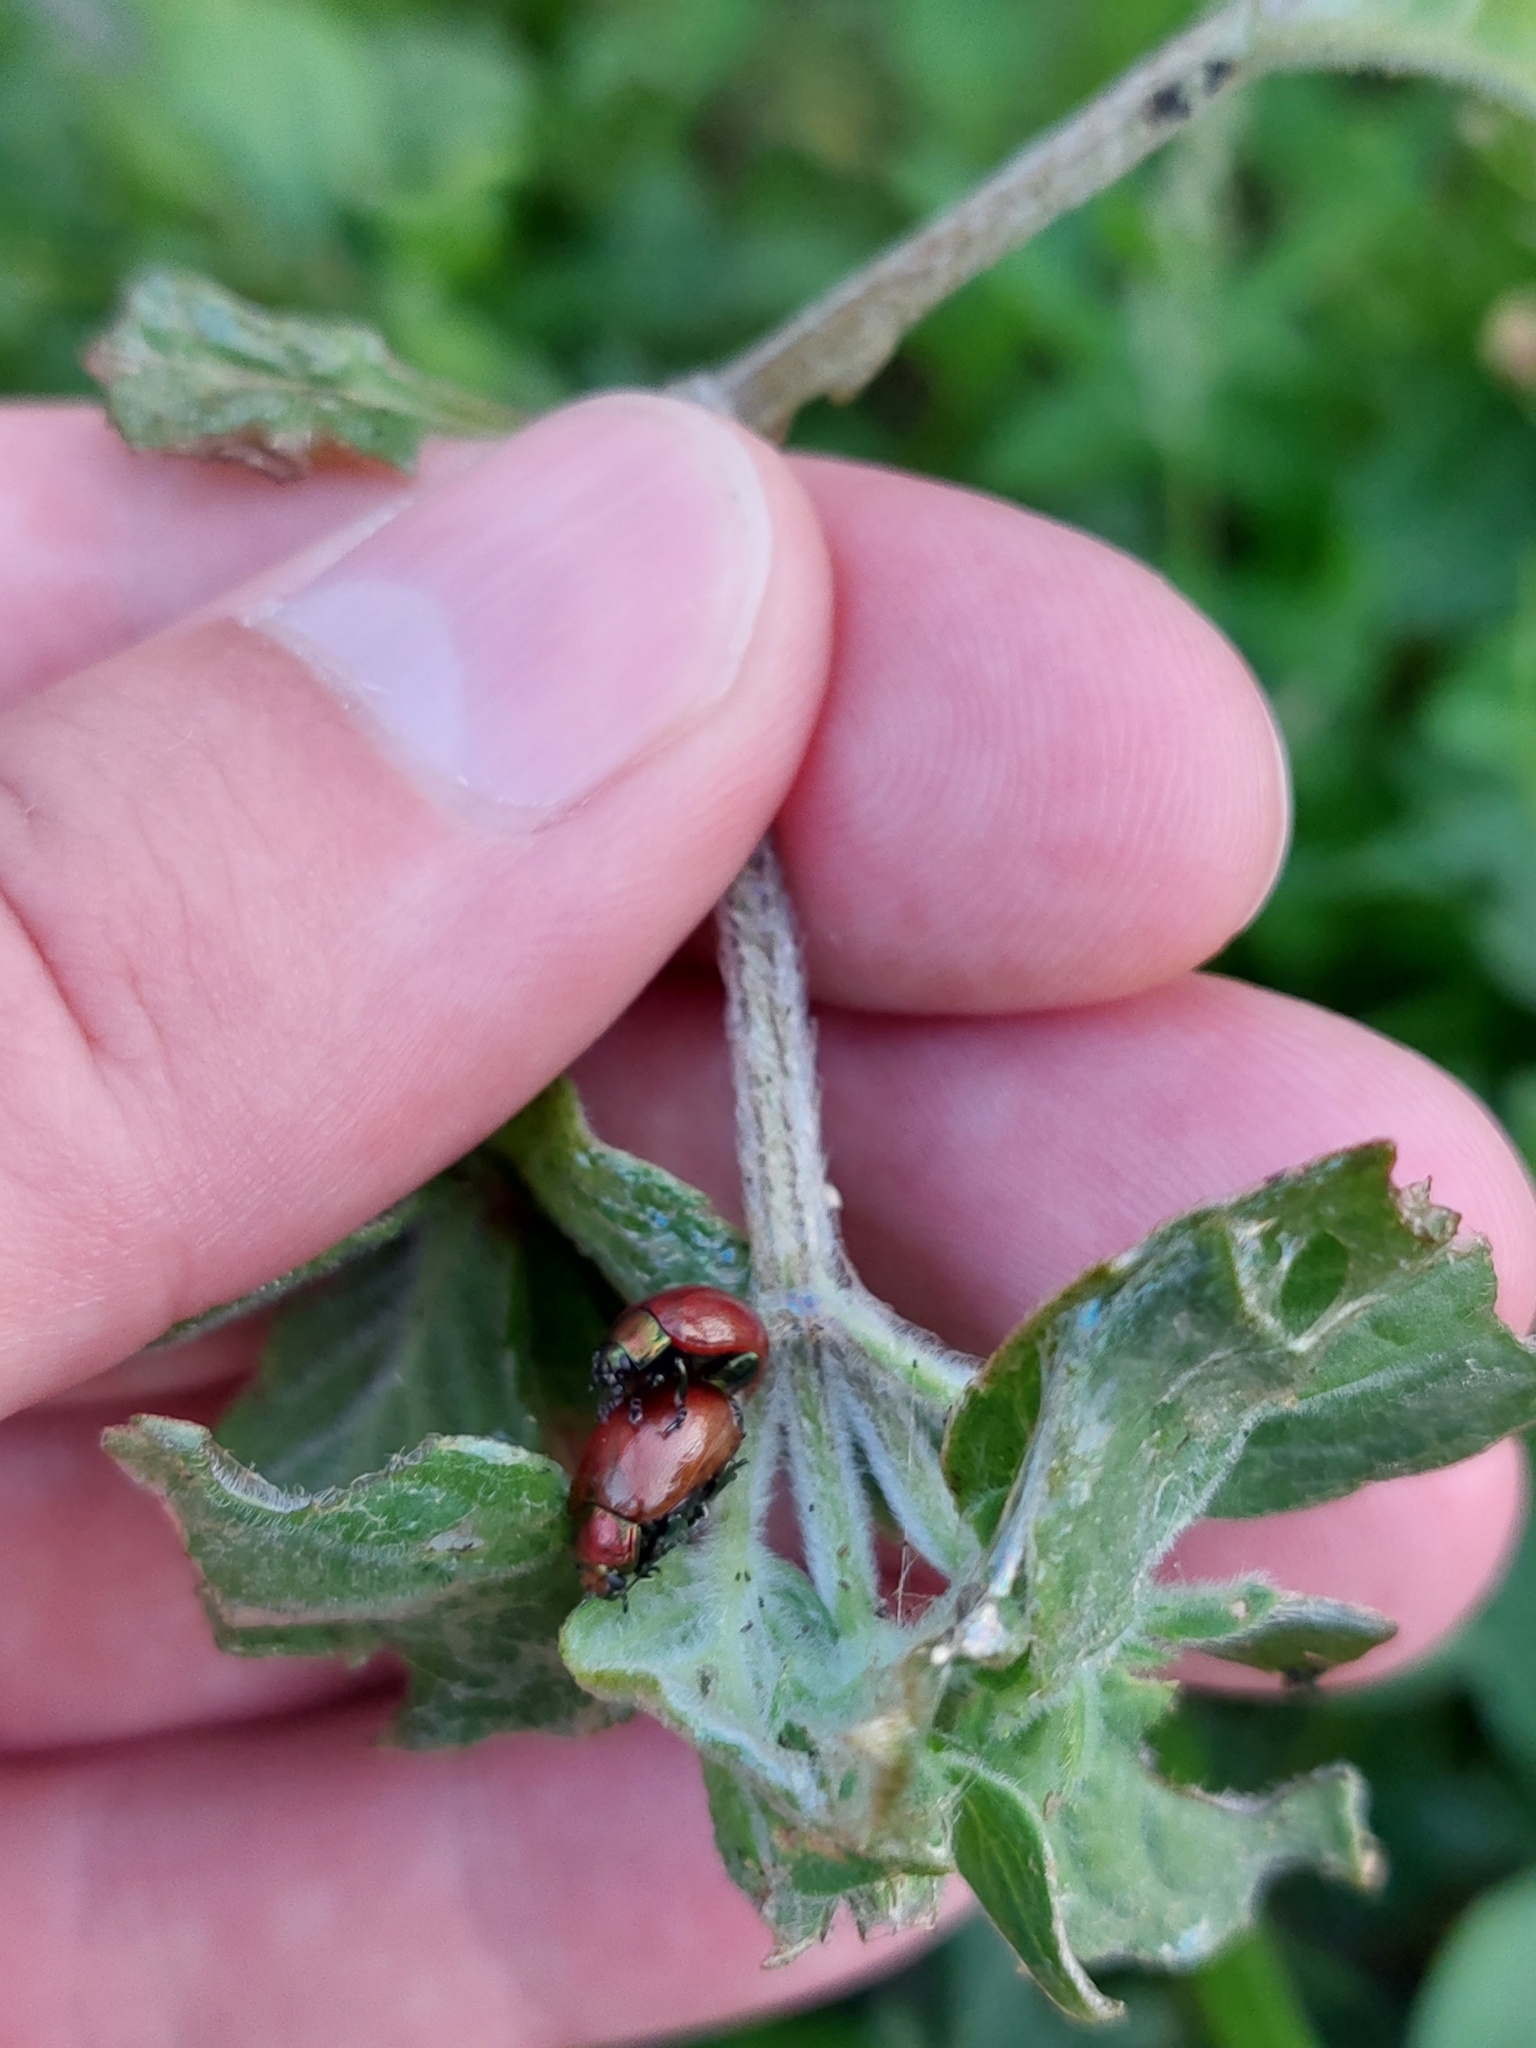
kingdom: Animalia
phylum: Arthropoda
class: Insecta
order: Coleoptera
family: Chrysomelidae
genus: Chrysomela
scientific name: Chrysomela polita
